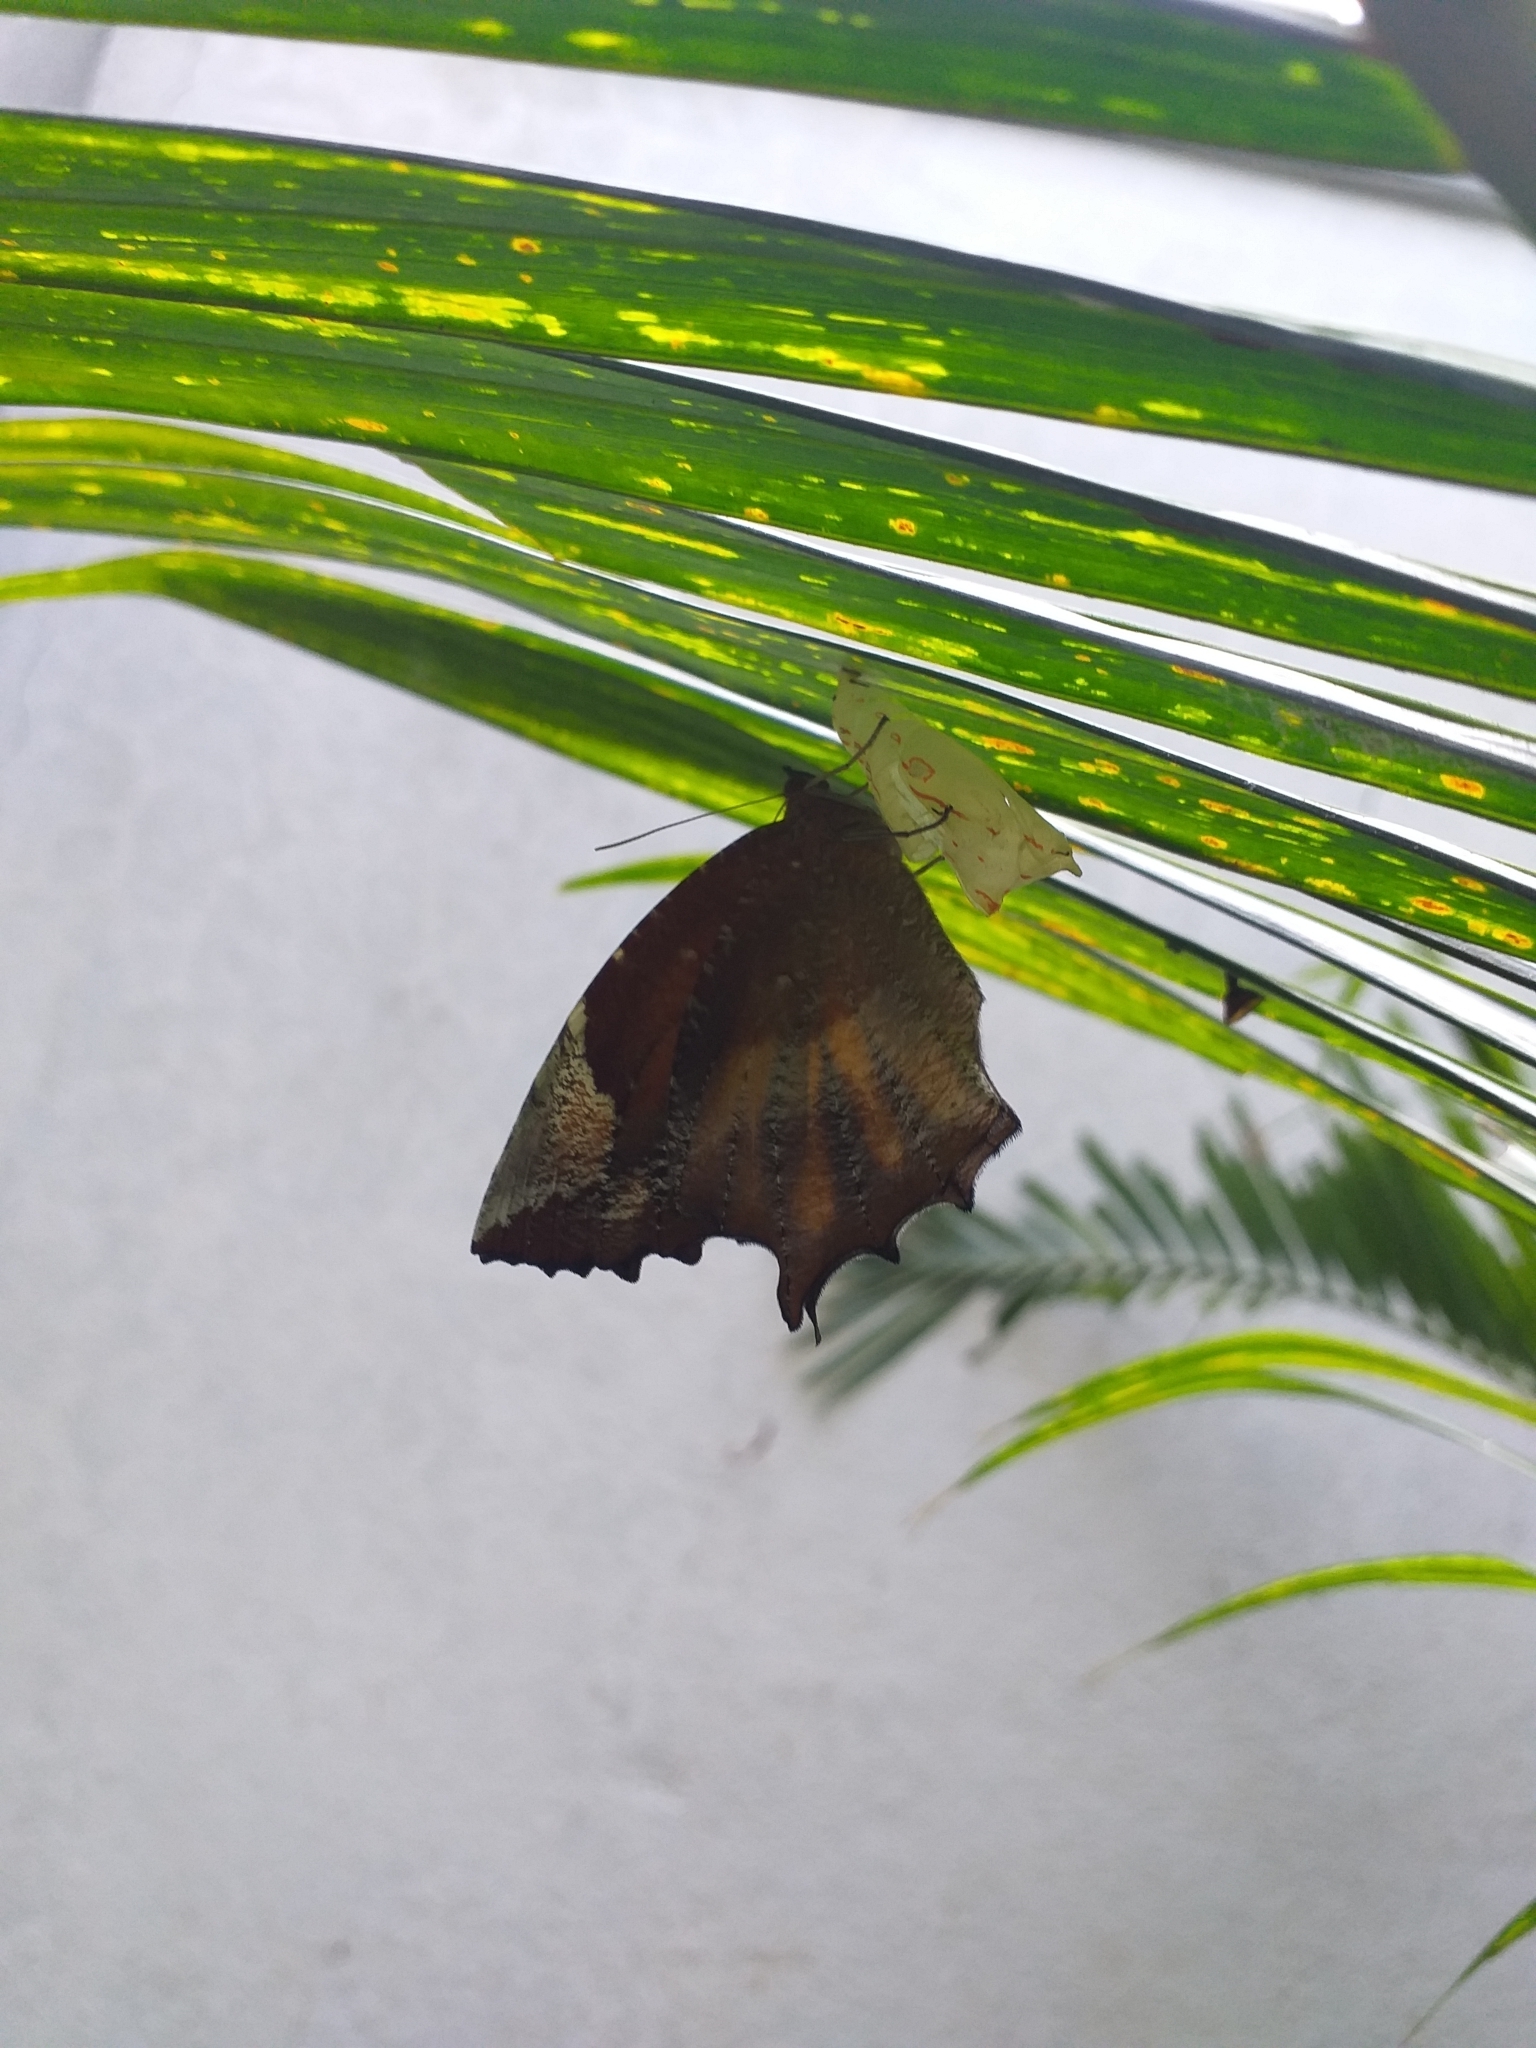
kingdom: Animalia
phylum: Arthropoda
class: Insecta
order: Lepidoptera
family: Nymphalidae
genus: Elymnias
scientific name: Elymnias caudata
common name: Tailed palmfly
